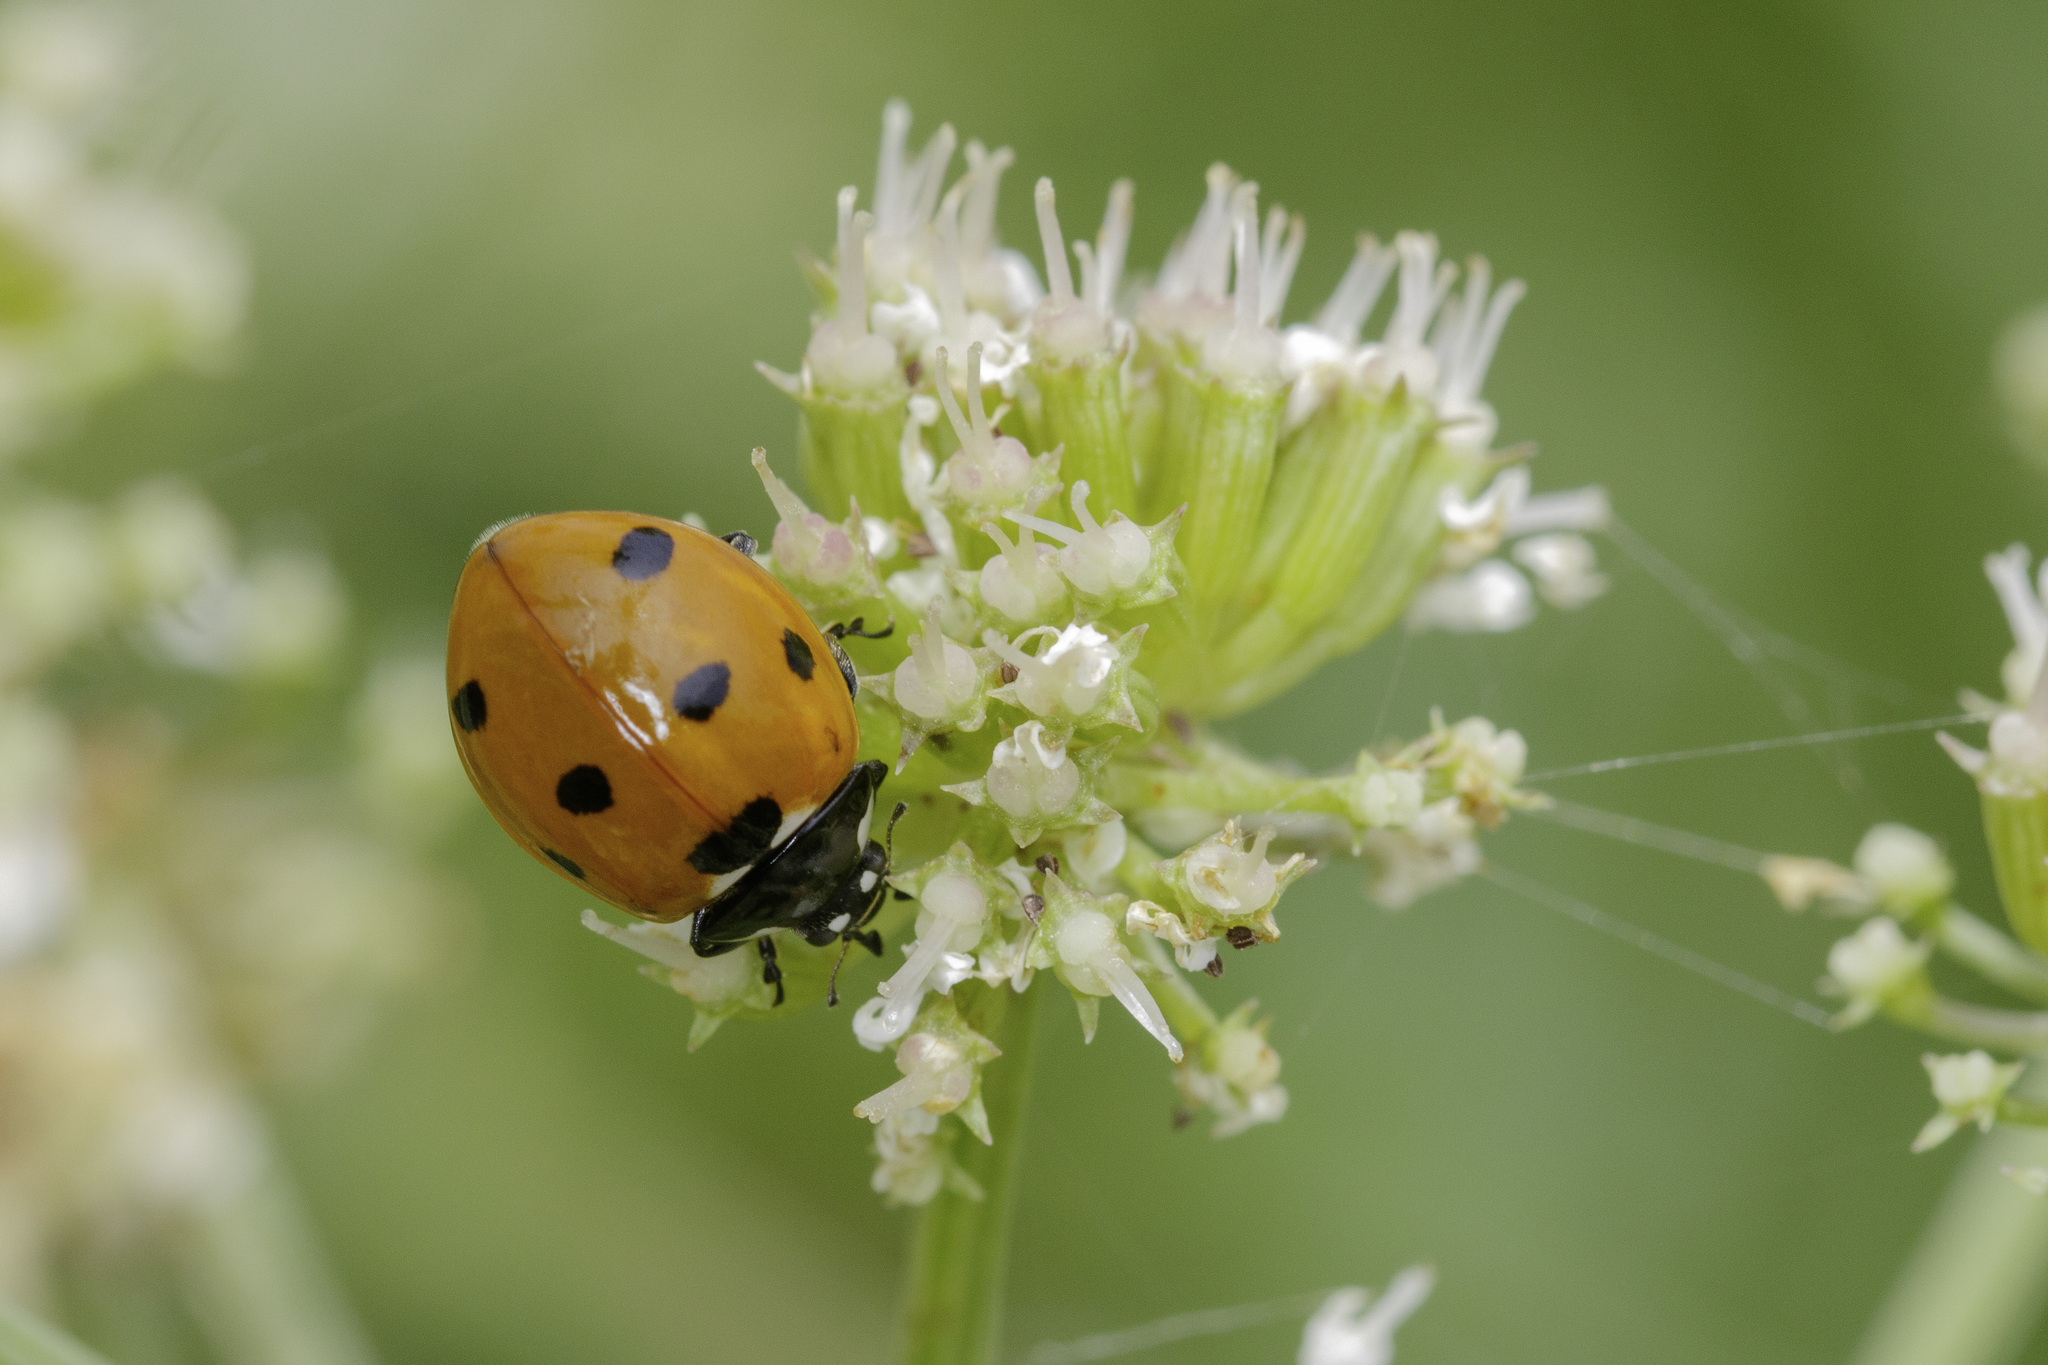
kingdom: Animalia
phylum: Arthropoda
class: Insecta
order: Coleoptera
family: Coccinellidae
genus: Coccinella
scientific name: Coccinella septempunctata
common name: Sevenspotted lady beetle
